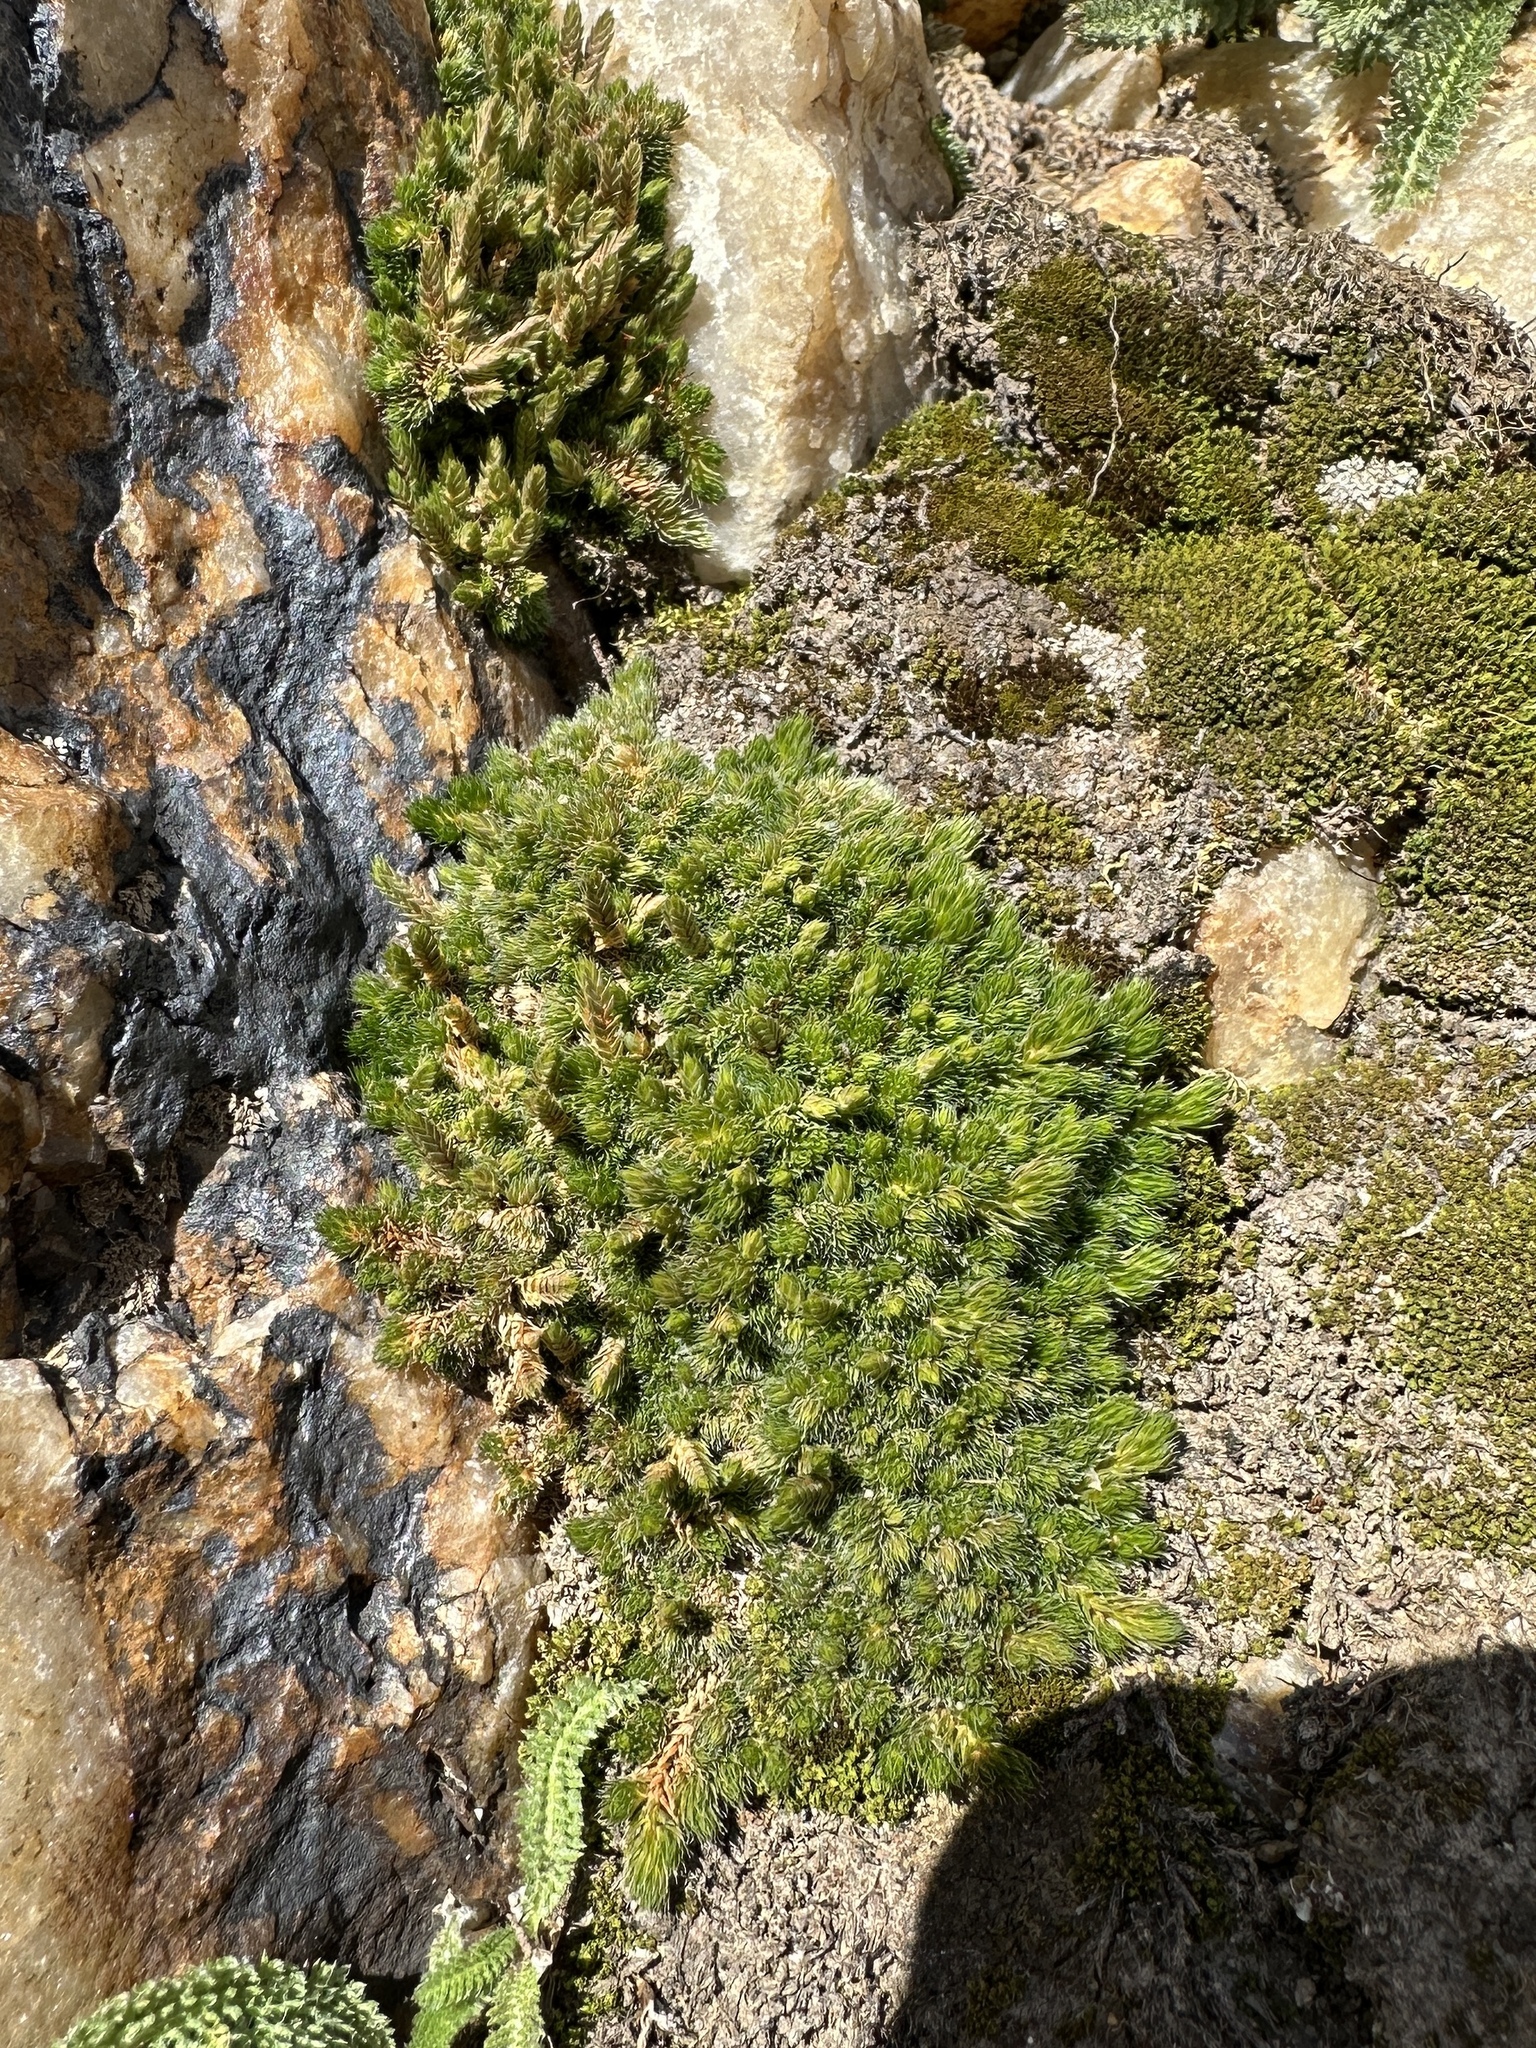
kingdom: Plantae
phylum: Tracheophyta
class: Lycopodiopsida
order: Selaginellales
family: Selaginellaceae
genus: Selaginella
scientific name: Selaginella densa
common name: Mountain spike-moss
